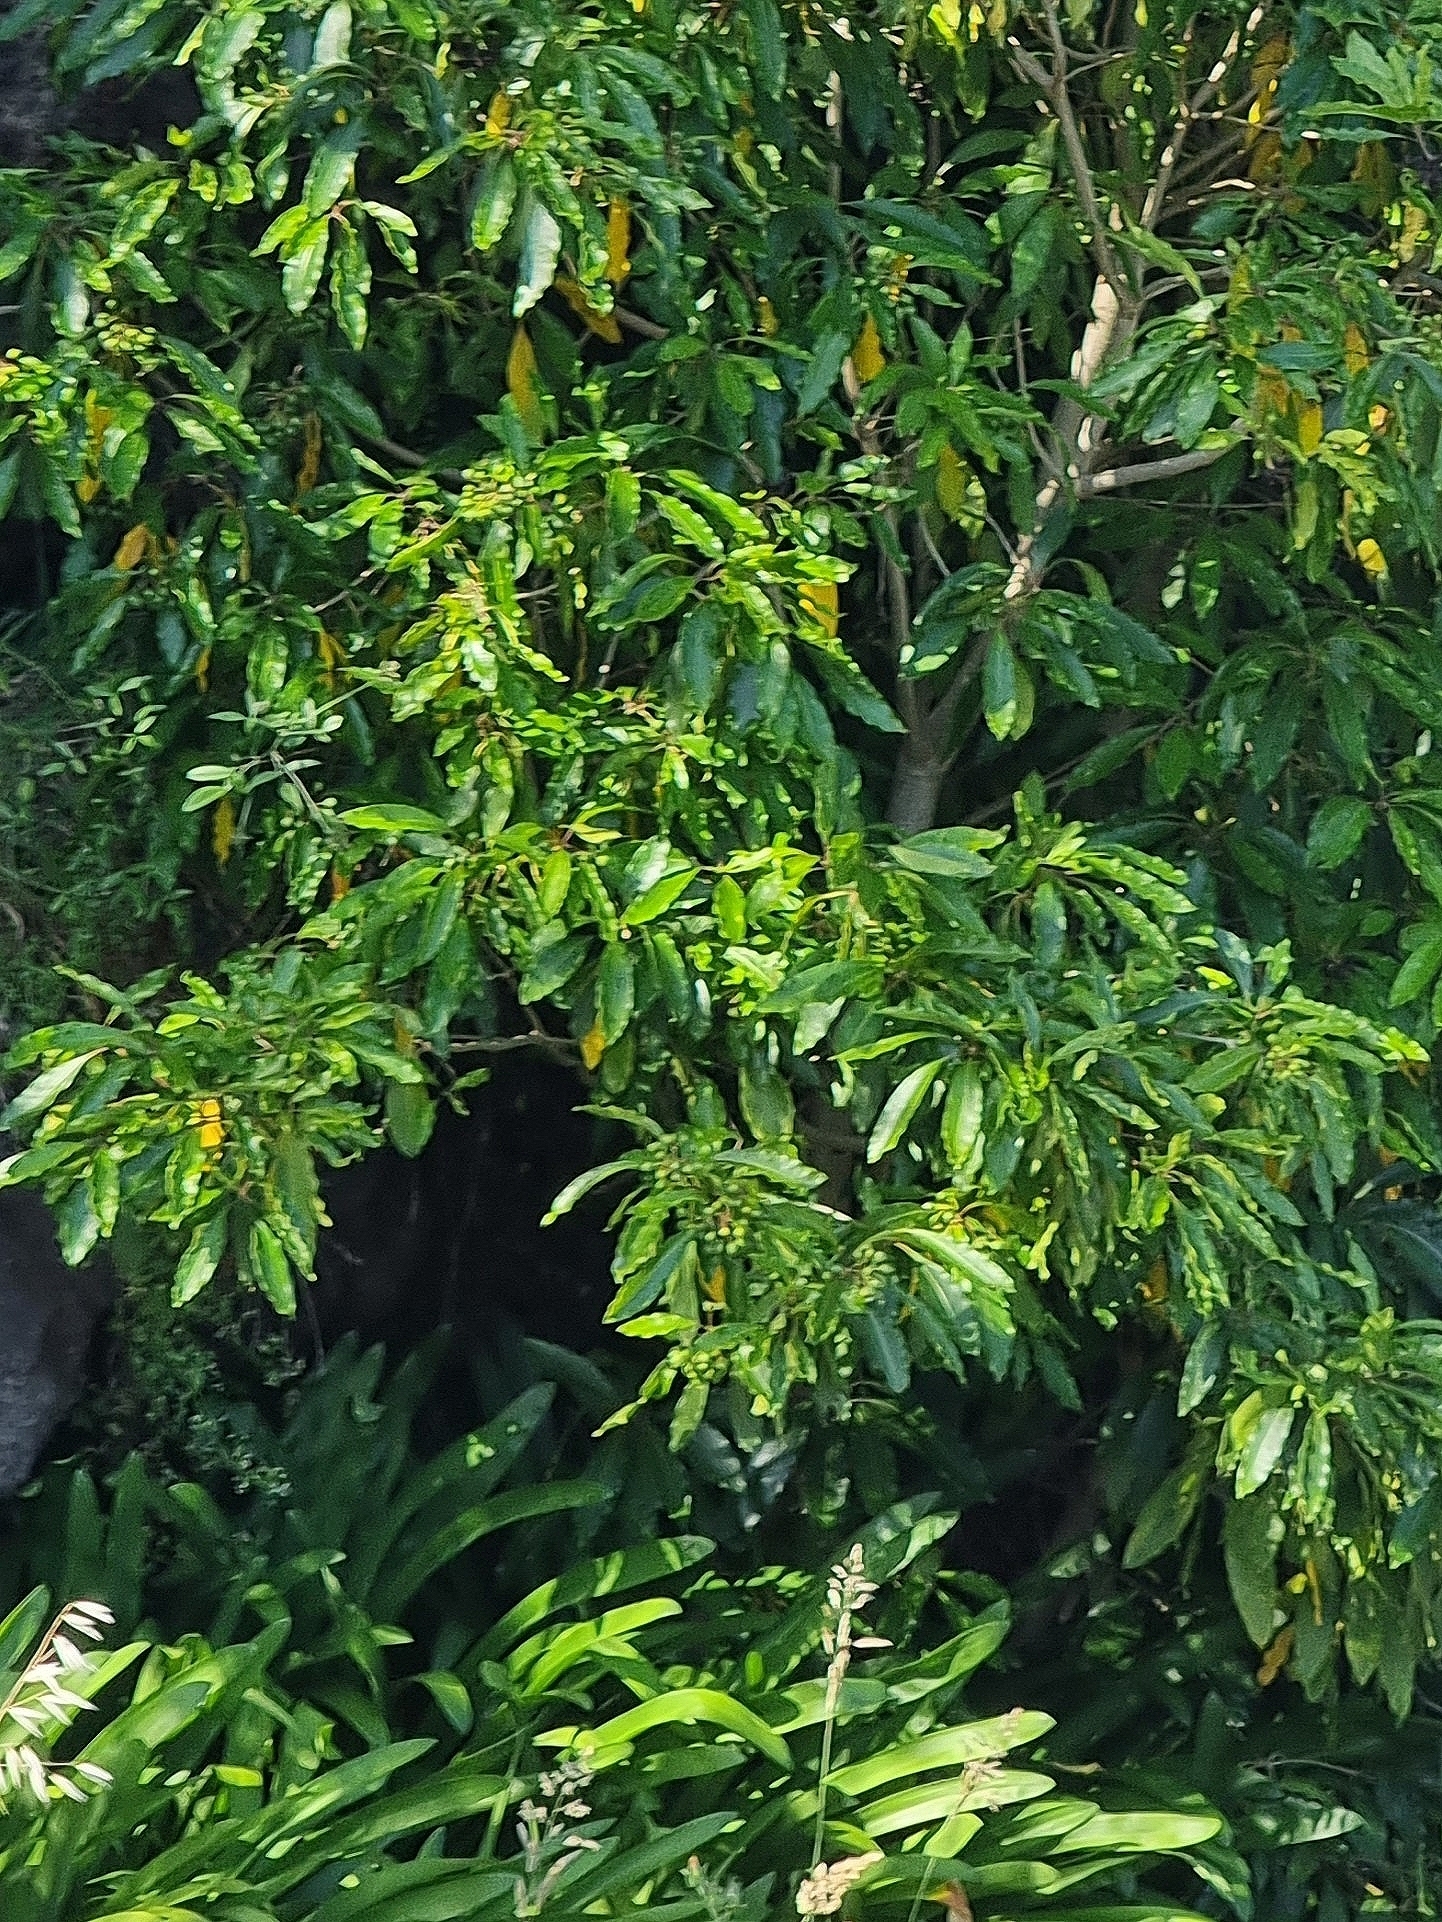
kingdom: Plantae
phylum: Tracheophyta
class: Magnoliopsida
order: Apiales
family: Pittosporaceae
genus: Pittosporum
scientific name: Pittosporum undulatum
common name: Australian cheesewood
